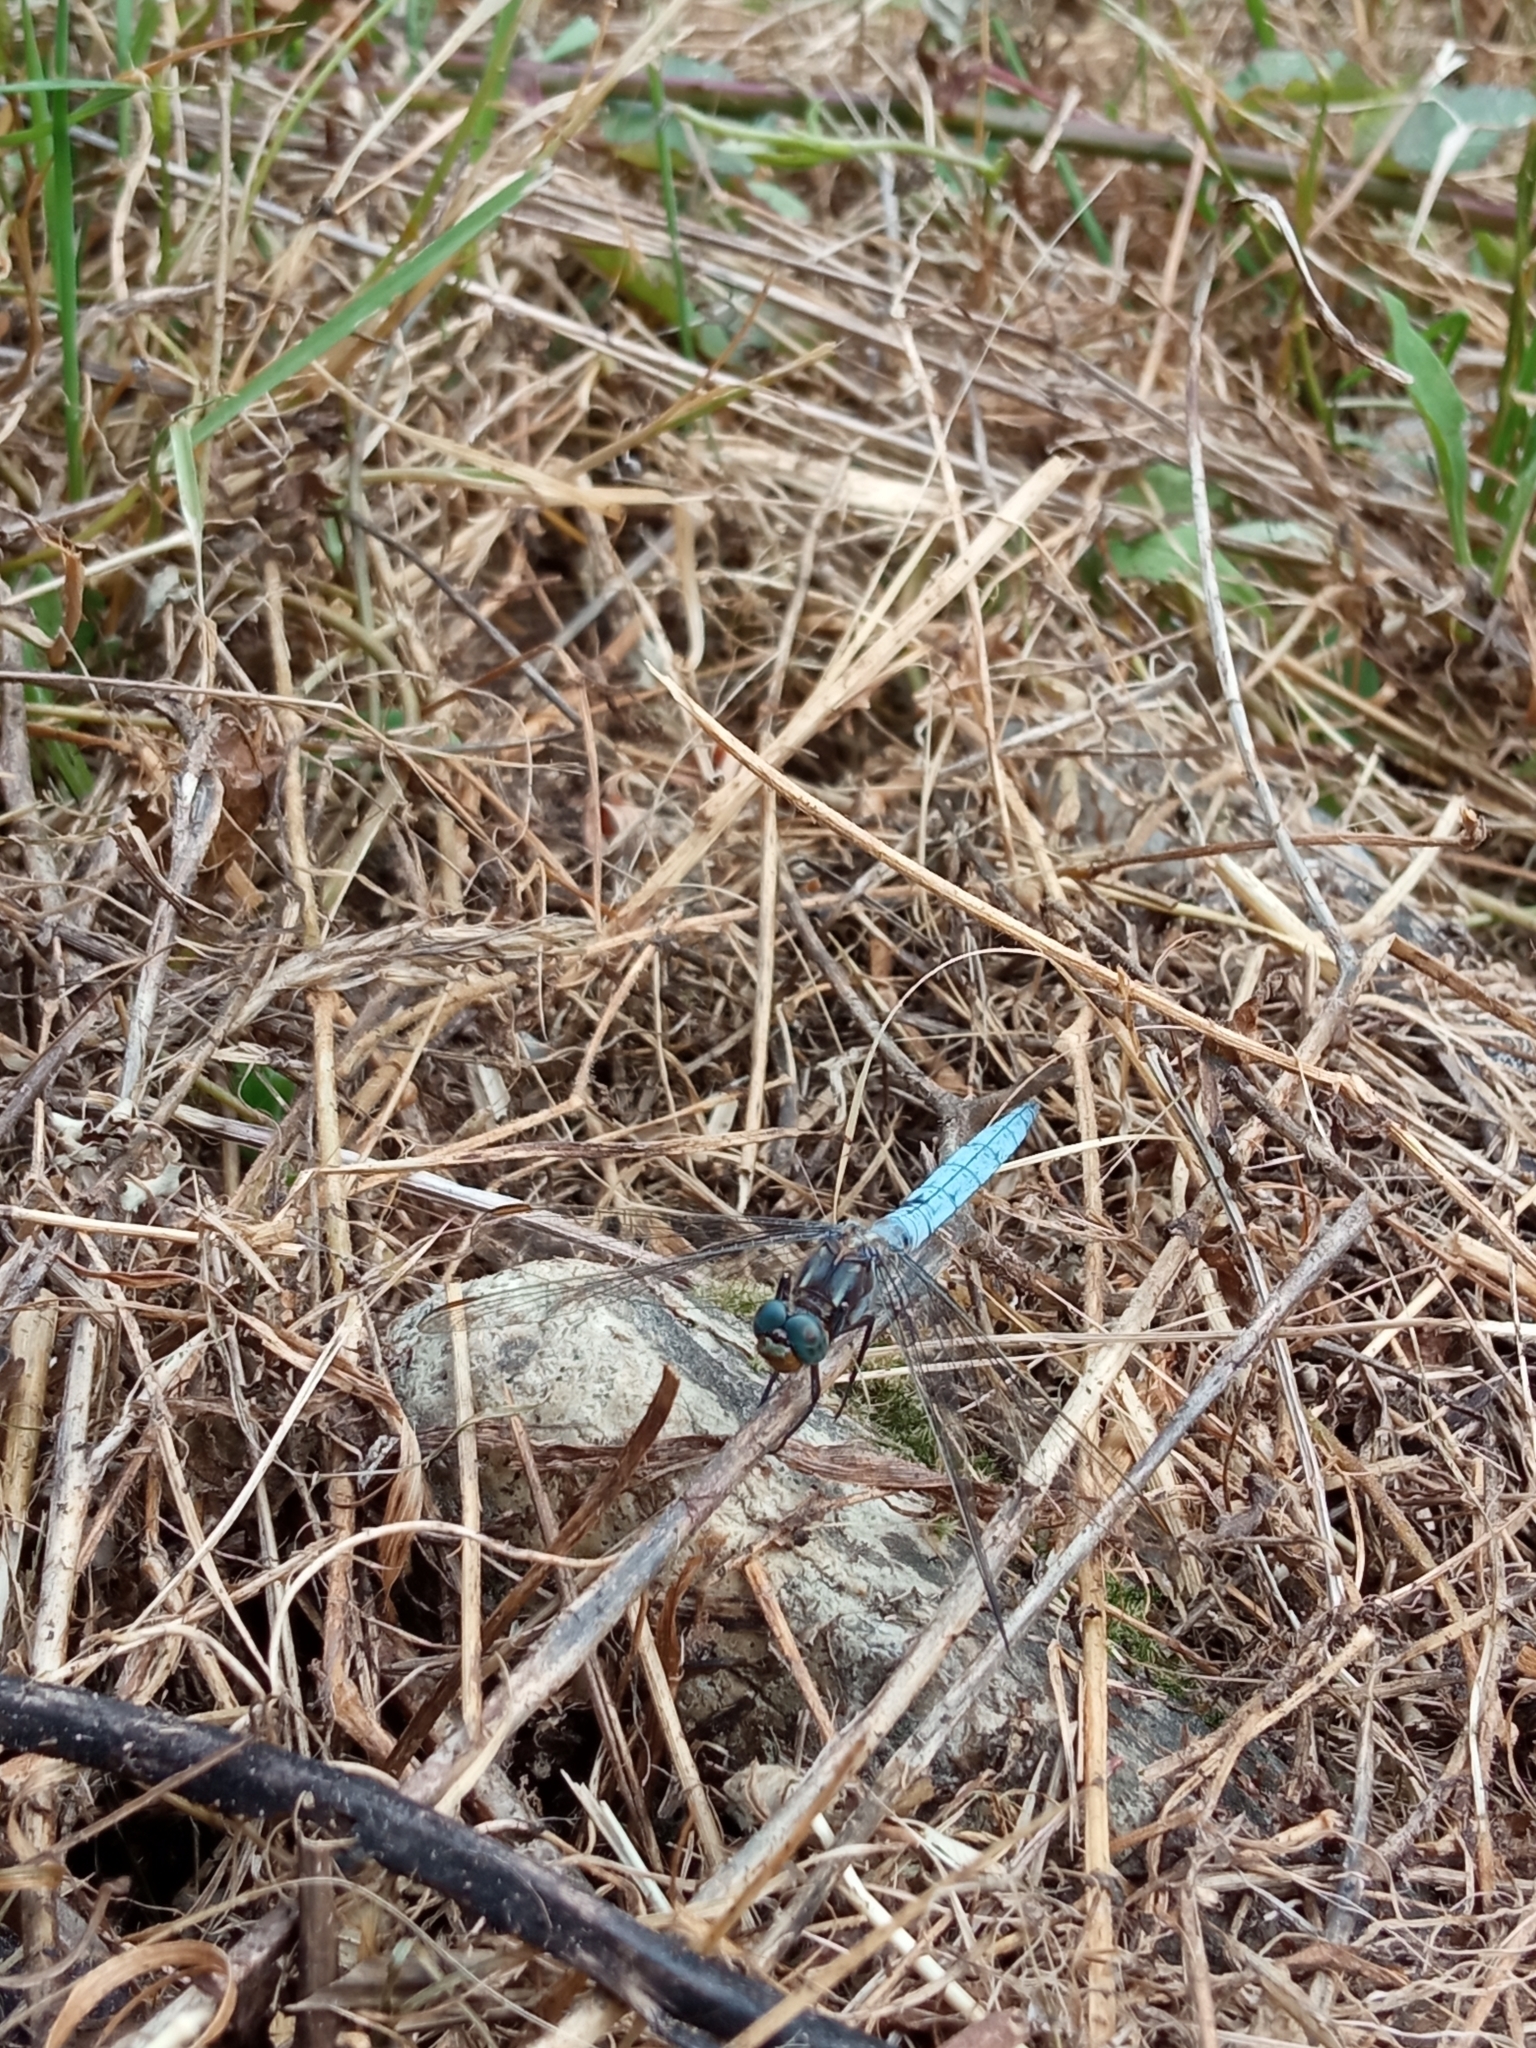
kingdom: Animalia
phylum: Arthropoda
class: Insecta
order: Odonata
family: Libellulidae
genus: Orthetrum
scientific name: Orthetrum coerulescens
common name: Keeled skimmer
